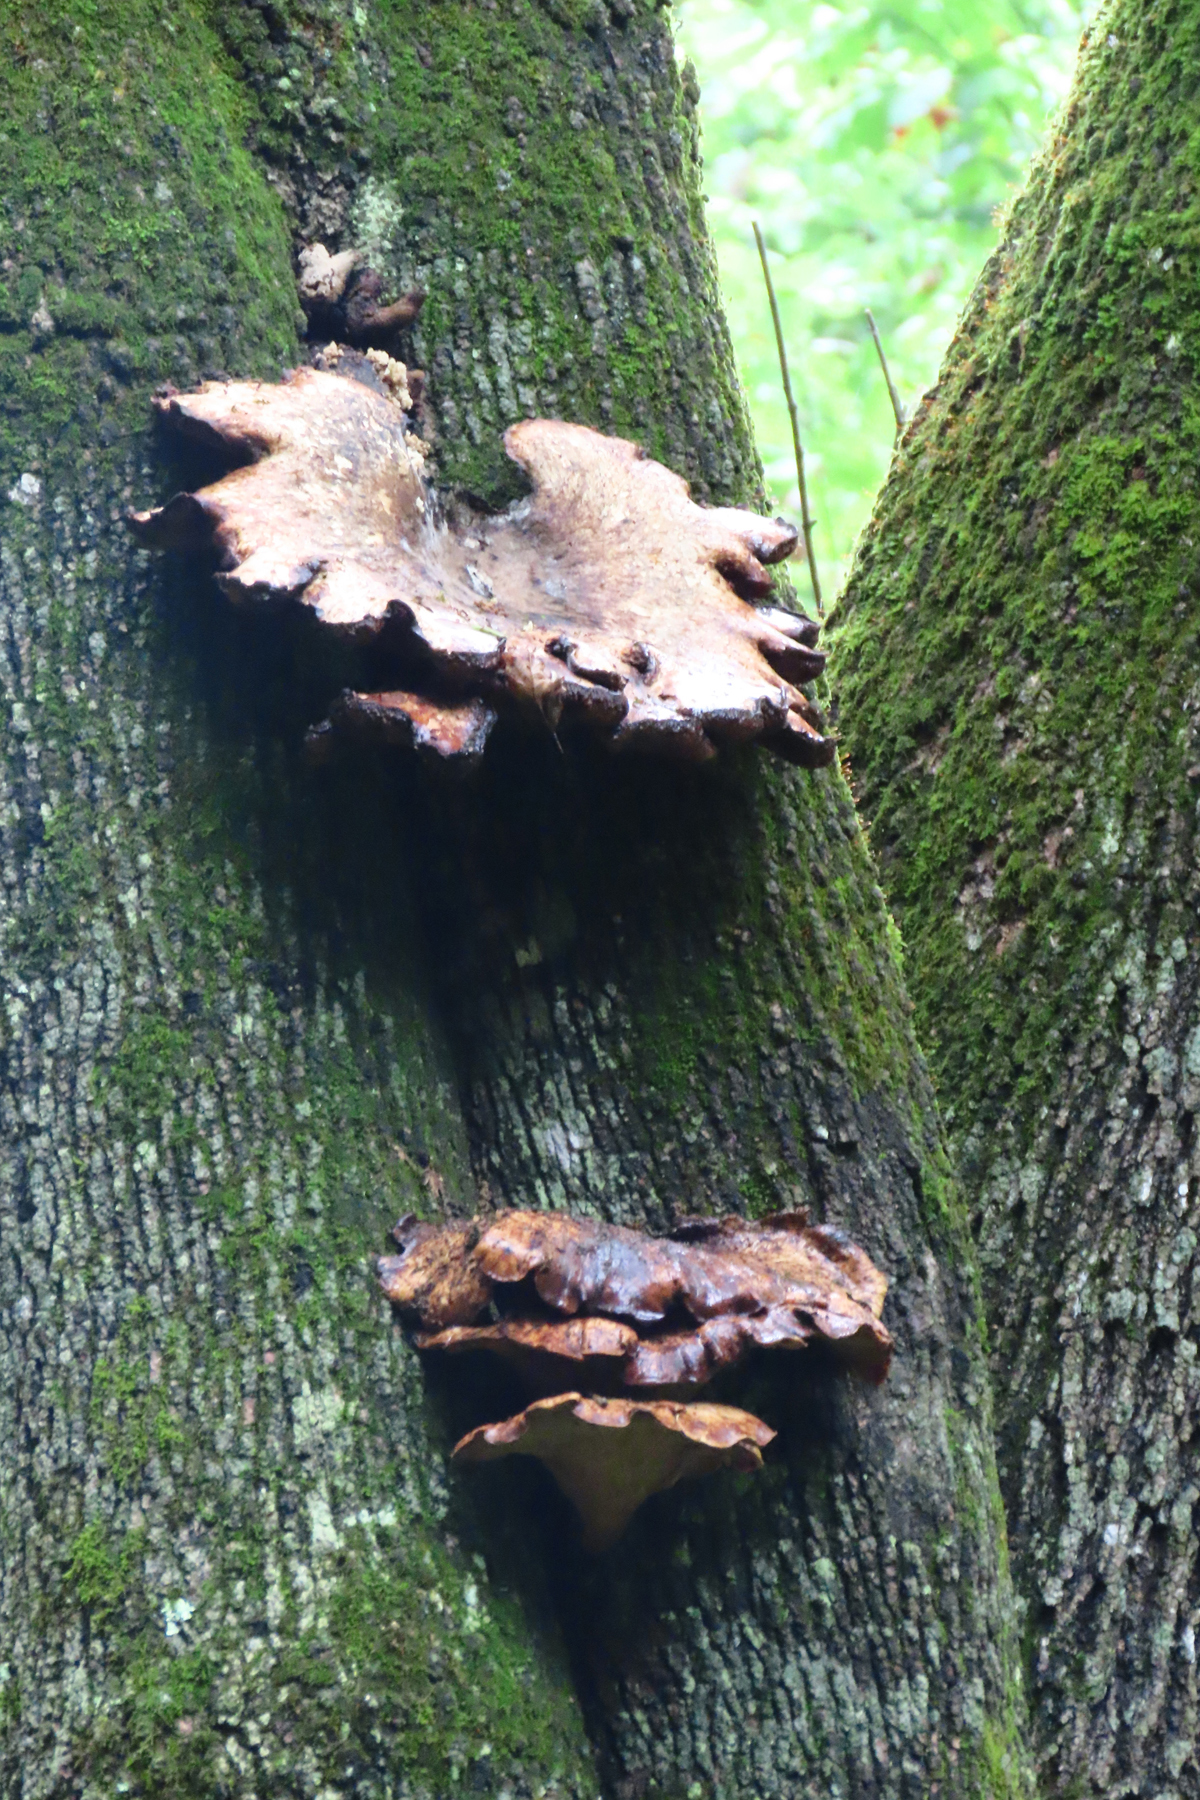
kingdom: Fungi
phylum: Basidiomycota
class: Agaricomycetes
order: Polyporales
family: Polyporaceae
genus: Cerioporus
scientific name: Cerioporus squamosus
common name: Dryad's saddle
